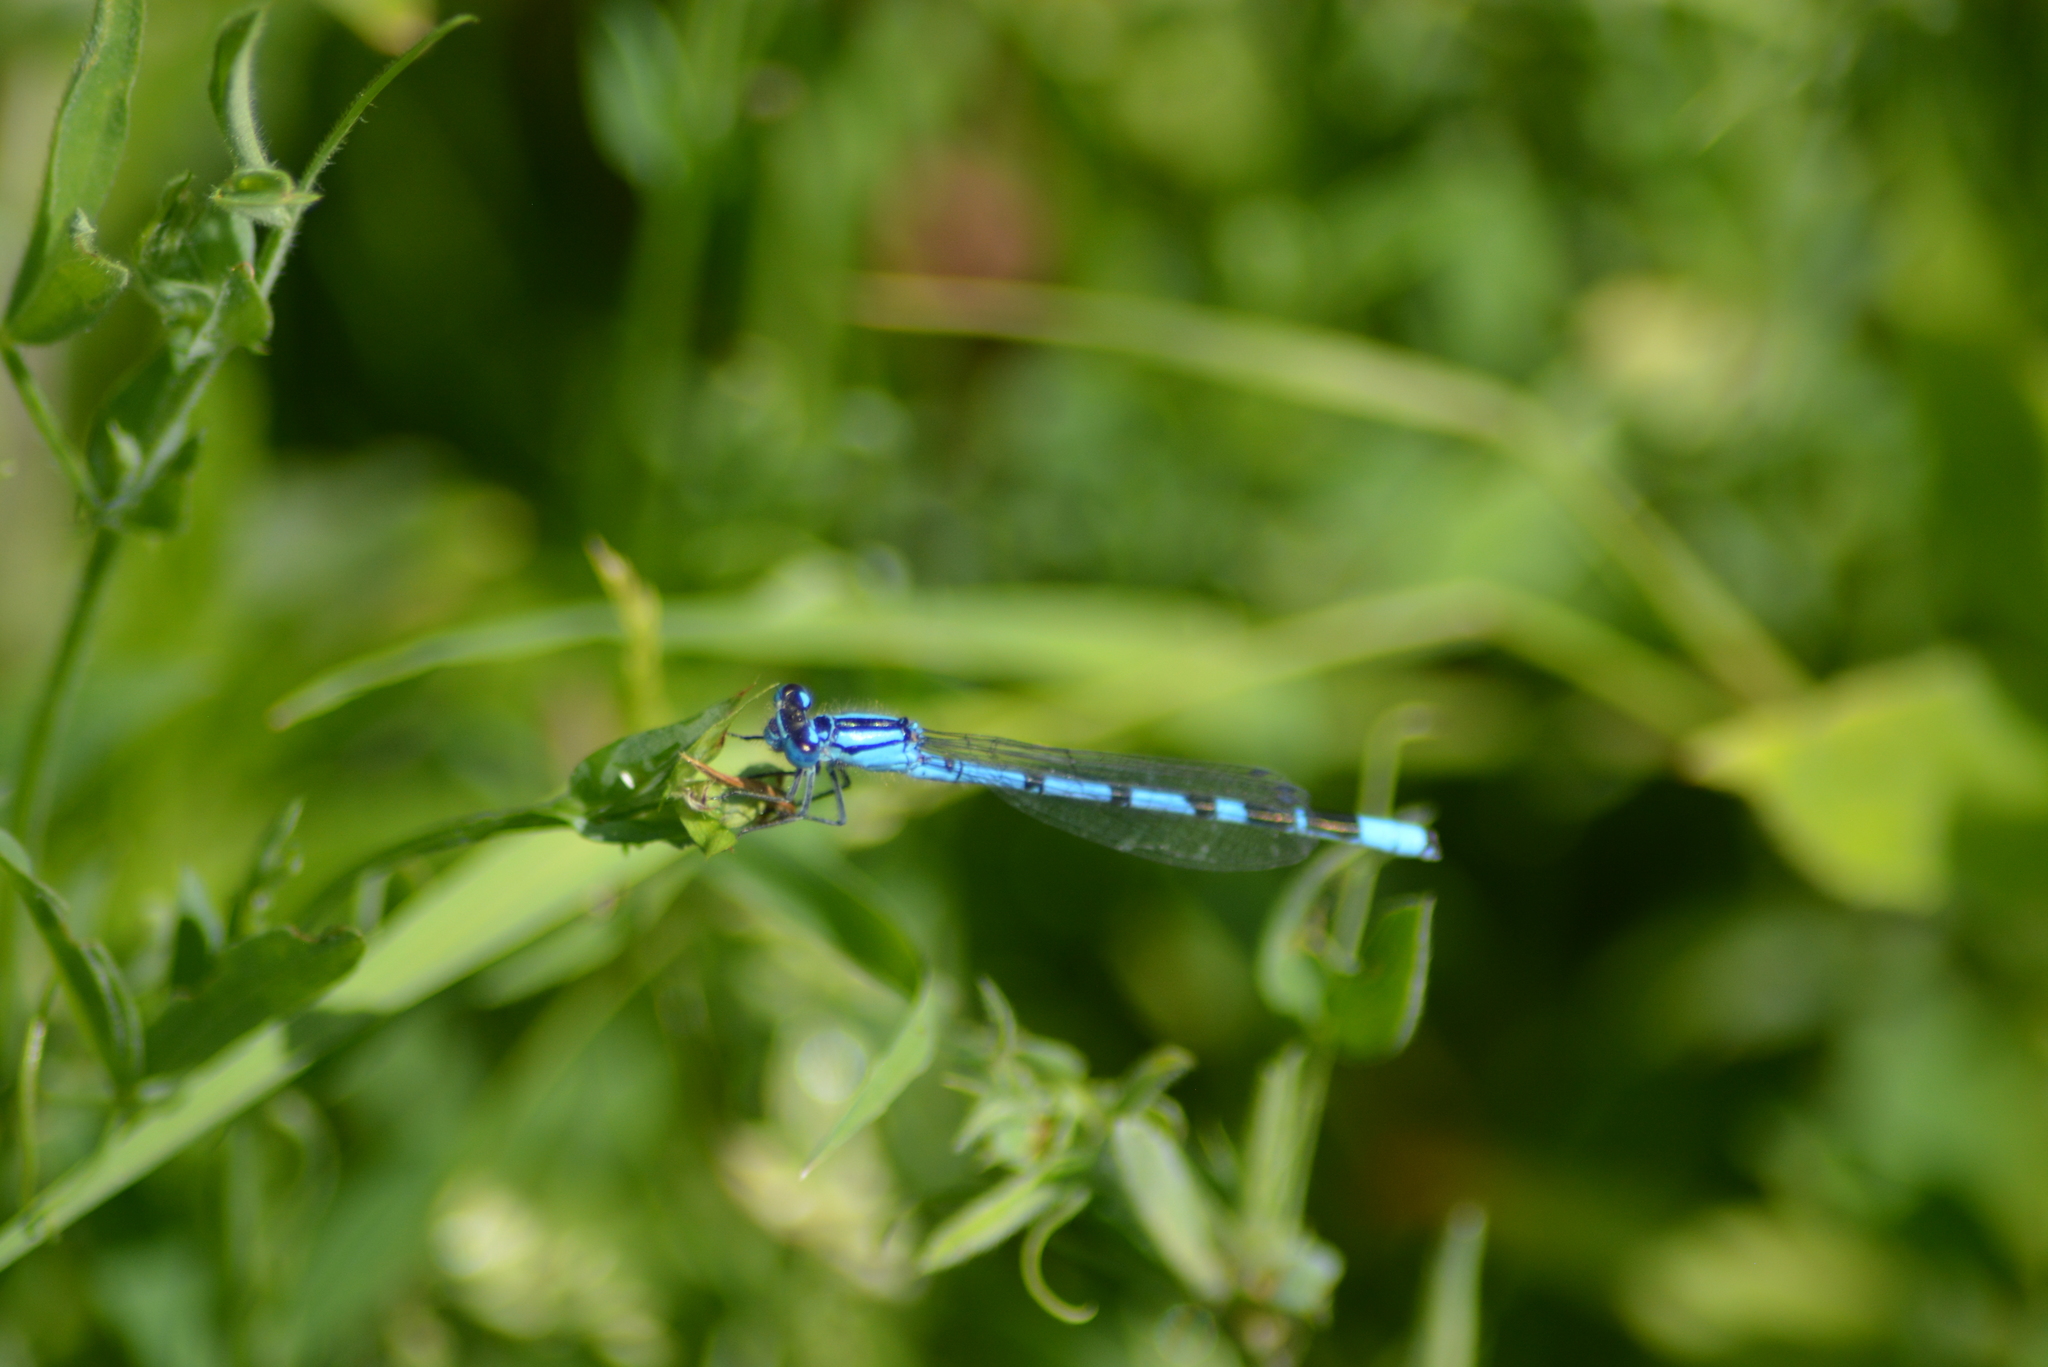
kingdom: Animalia
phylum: Arthropoda
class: Insecta
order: Odonata
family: Coenagrionidae
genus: Enallagma
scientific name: Enallagma cyathigerum
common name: Common blue damselfly
